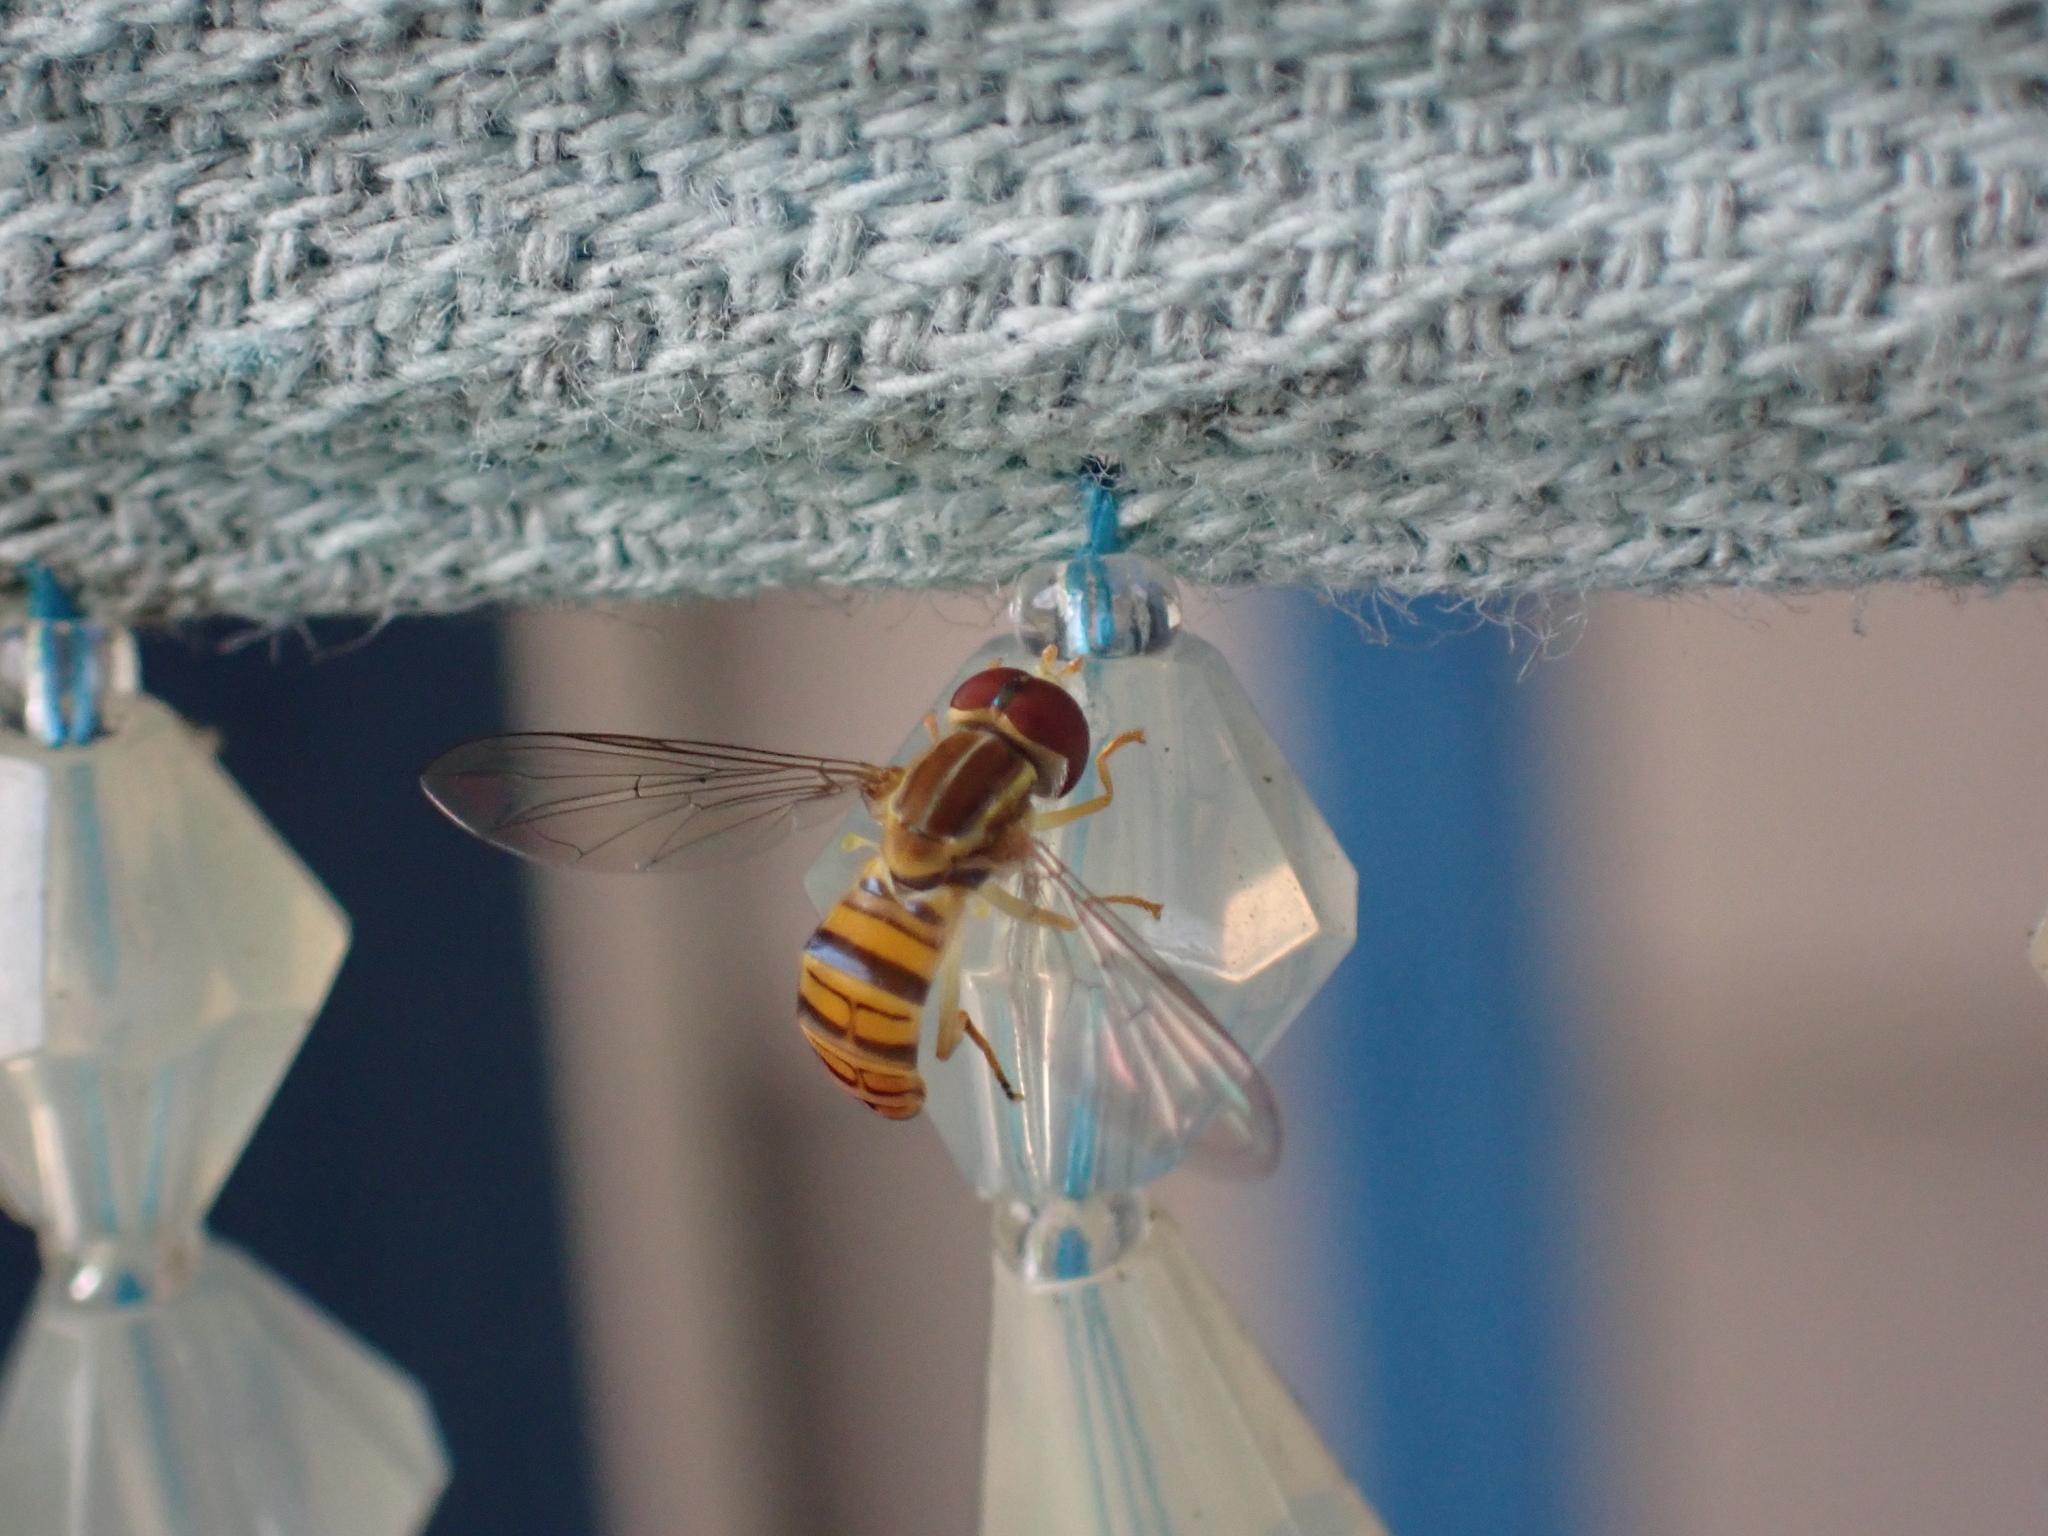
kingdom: Animalia
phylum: Arthropoda
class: Insecta
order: Diptera
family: Syrphidae
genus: Toxomerus
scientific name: Toxomerus politus
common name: Maize calligrapher
